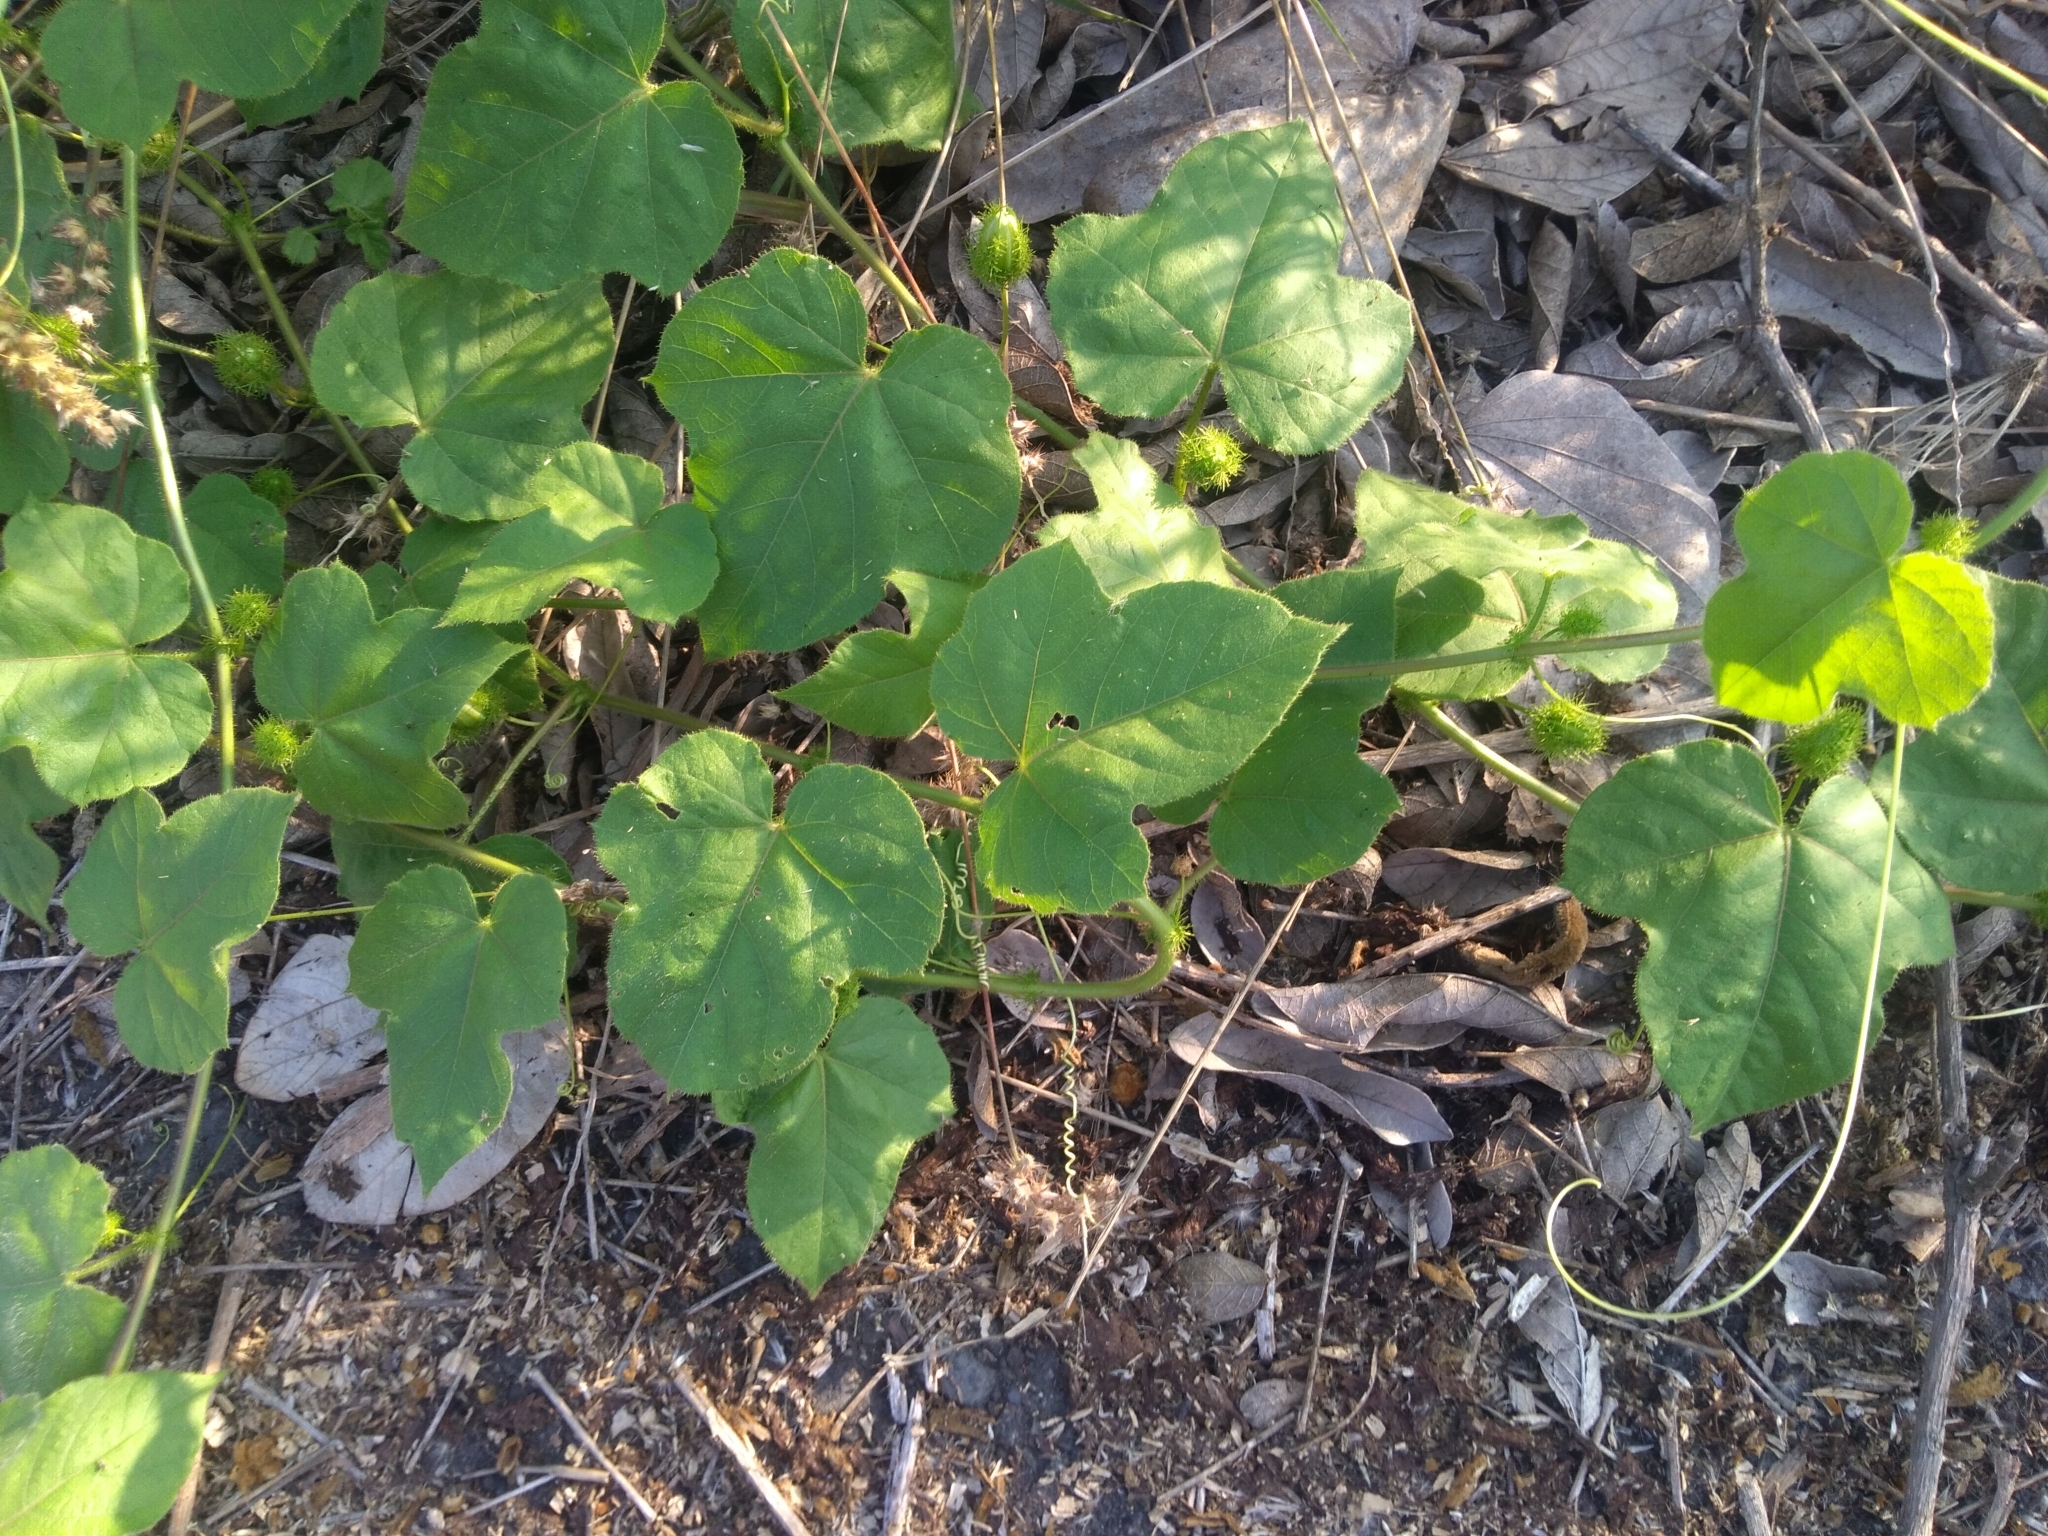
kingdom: Plantae
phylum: Tracheophyta
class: Magnoliopsida
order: Malpighiales
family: Passifloraceae
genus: Passiflora
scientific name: Passiflora vesicaria
